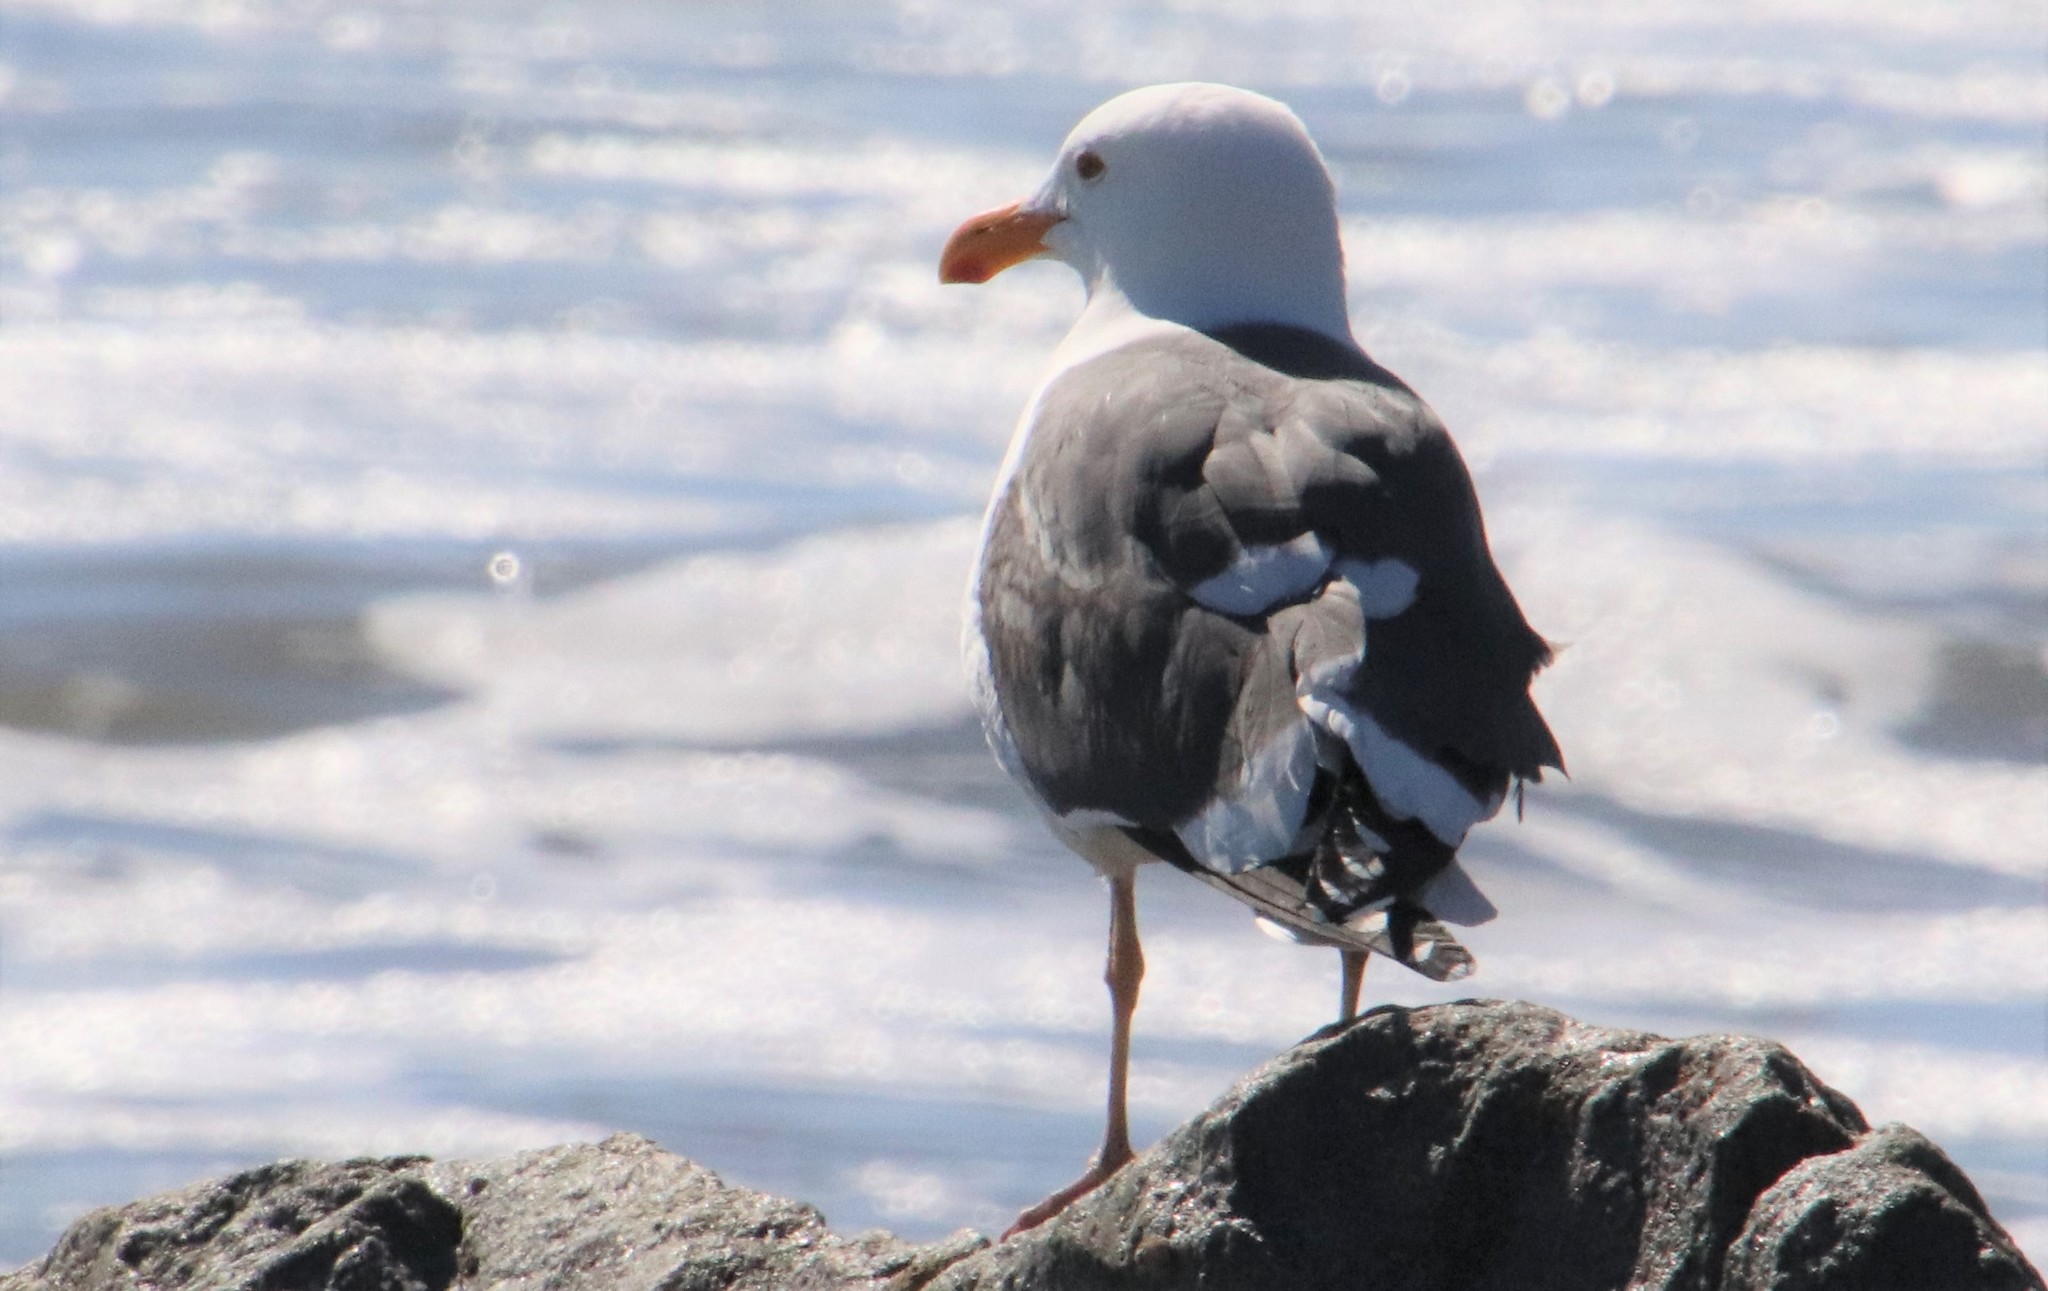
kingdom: Animalia
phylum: Chordata
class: Aves
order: Charadriiformes
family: Laridae
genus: Larus
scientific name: Larus occidentalis
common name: Western gull
